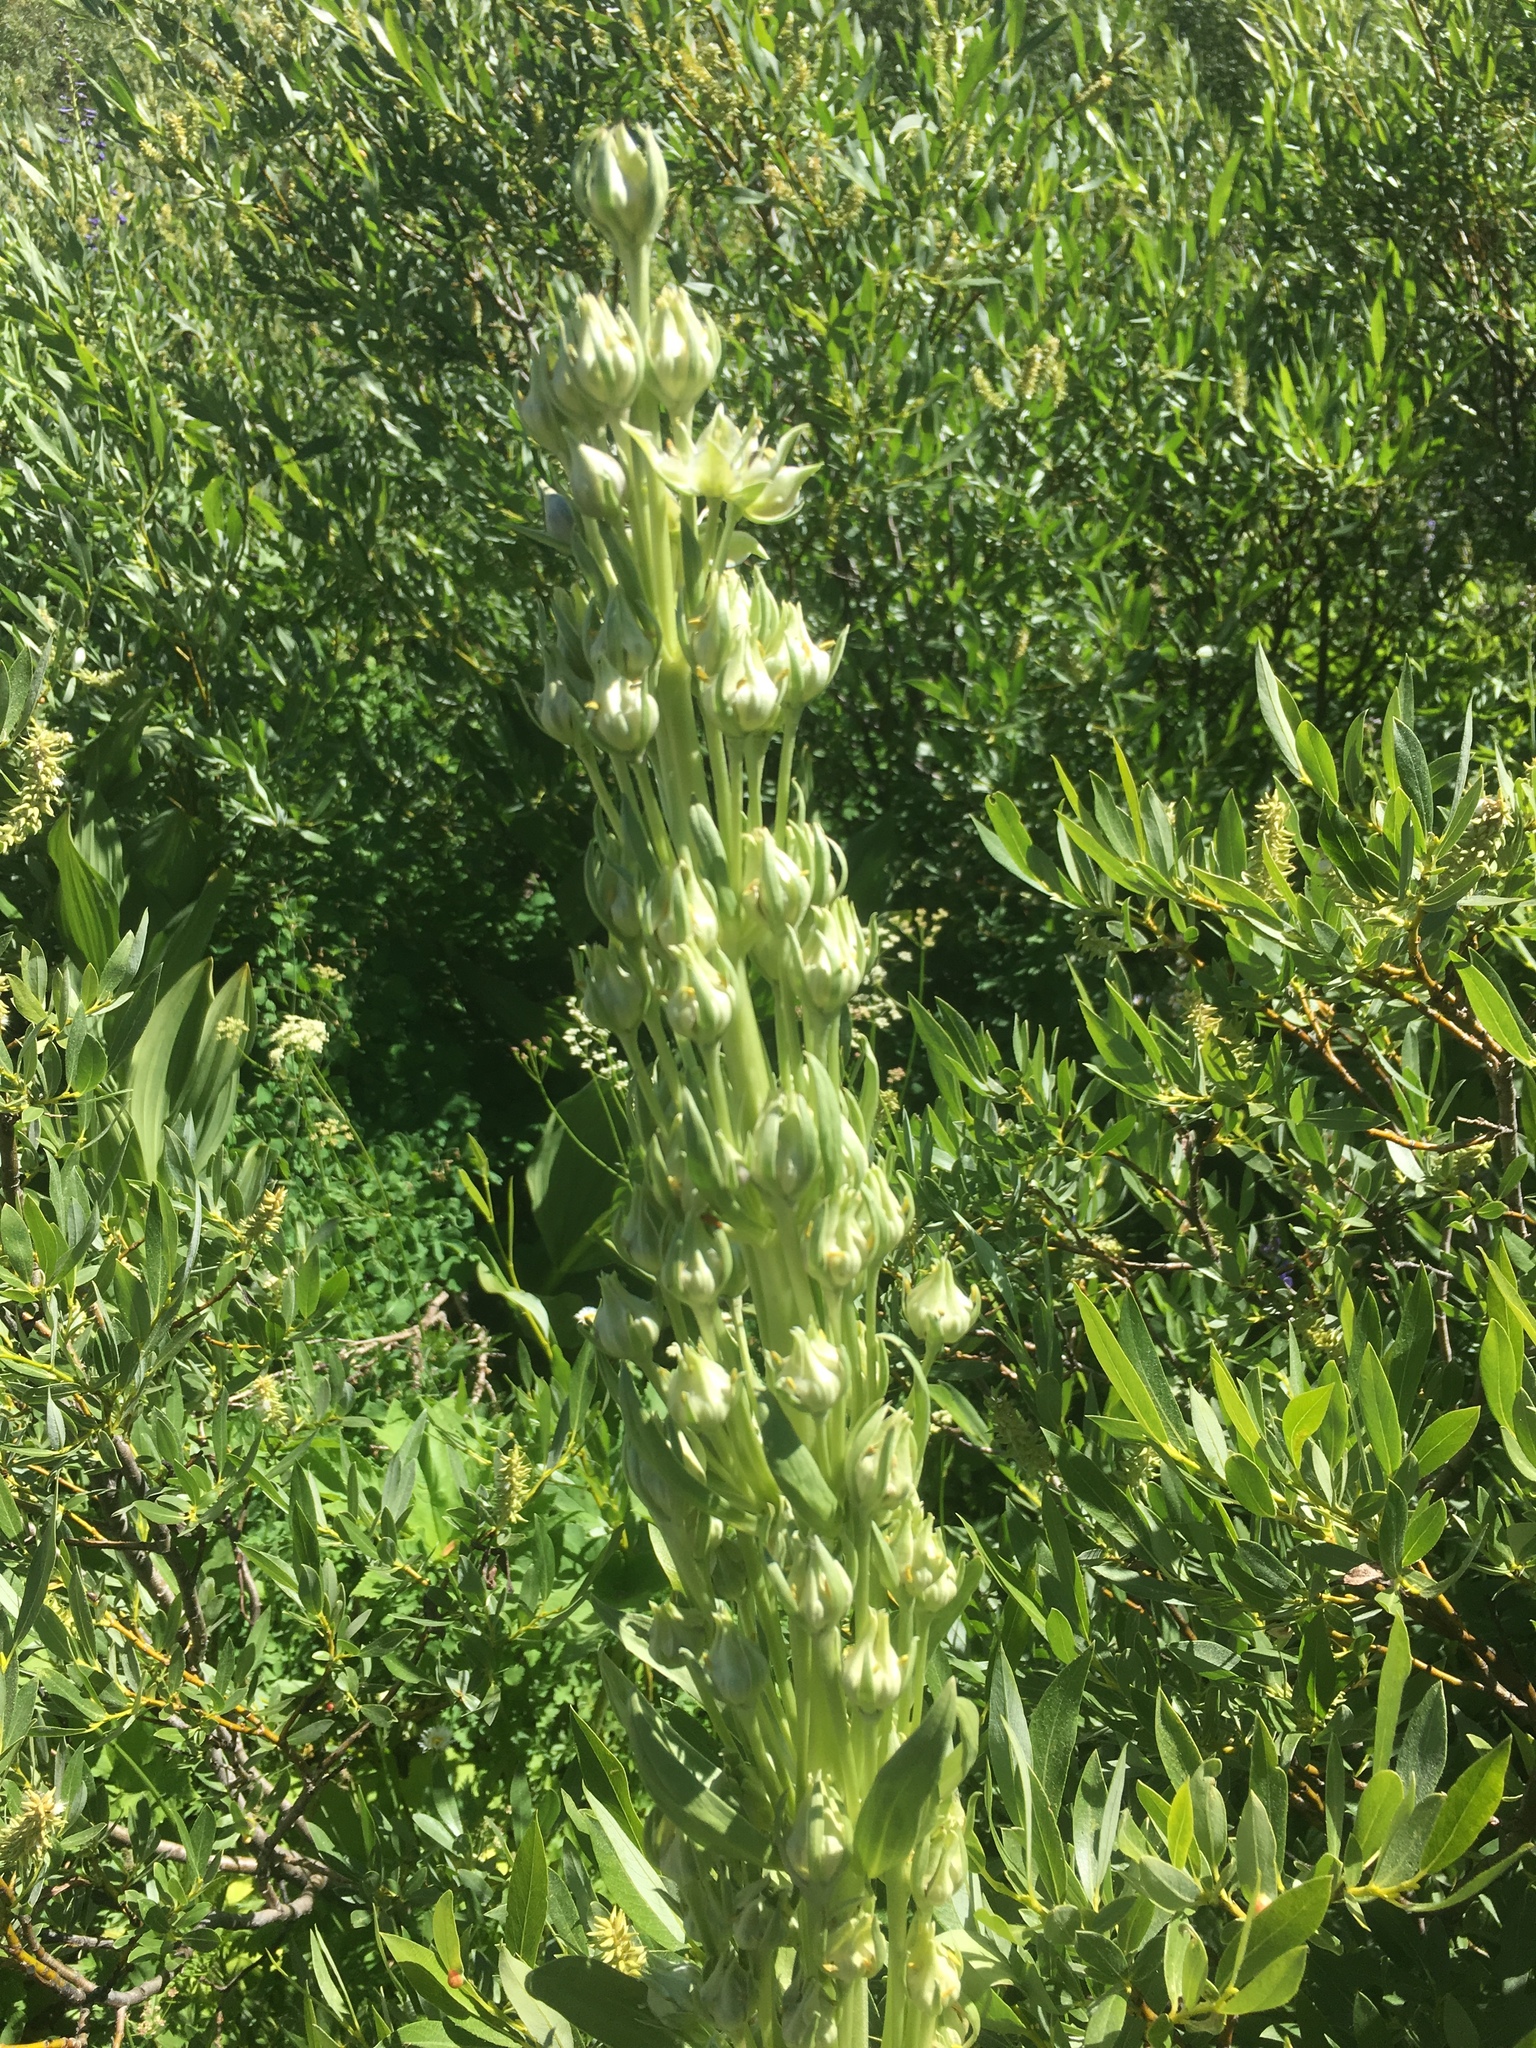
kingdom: Plantae
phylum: Tracheophyta
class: Magnoliopsida
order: Gentianales
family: Gentianaceae
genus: Frasera
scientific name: Frasera speciosa
